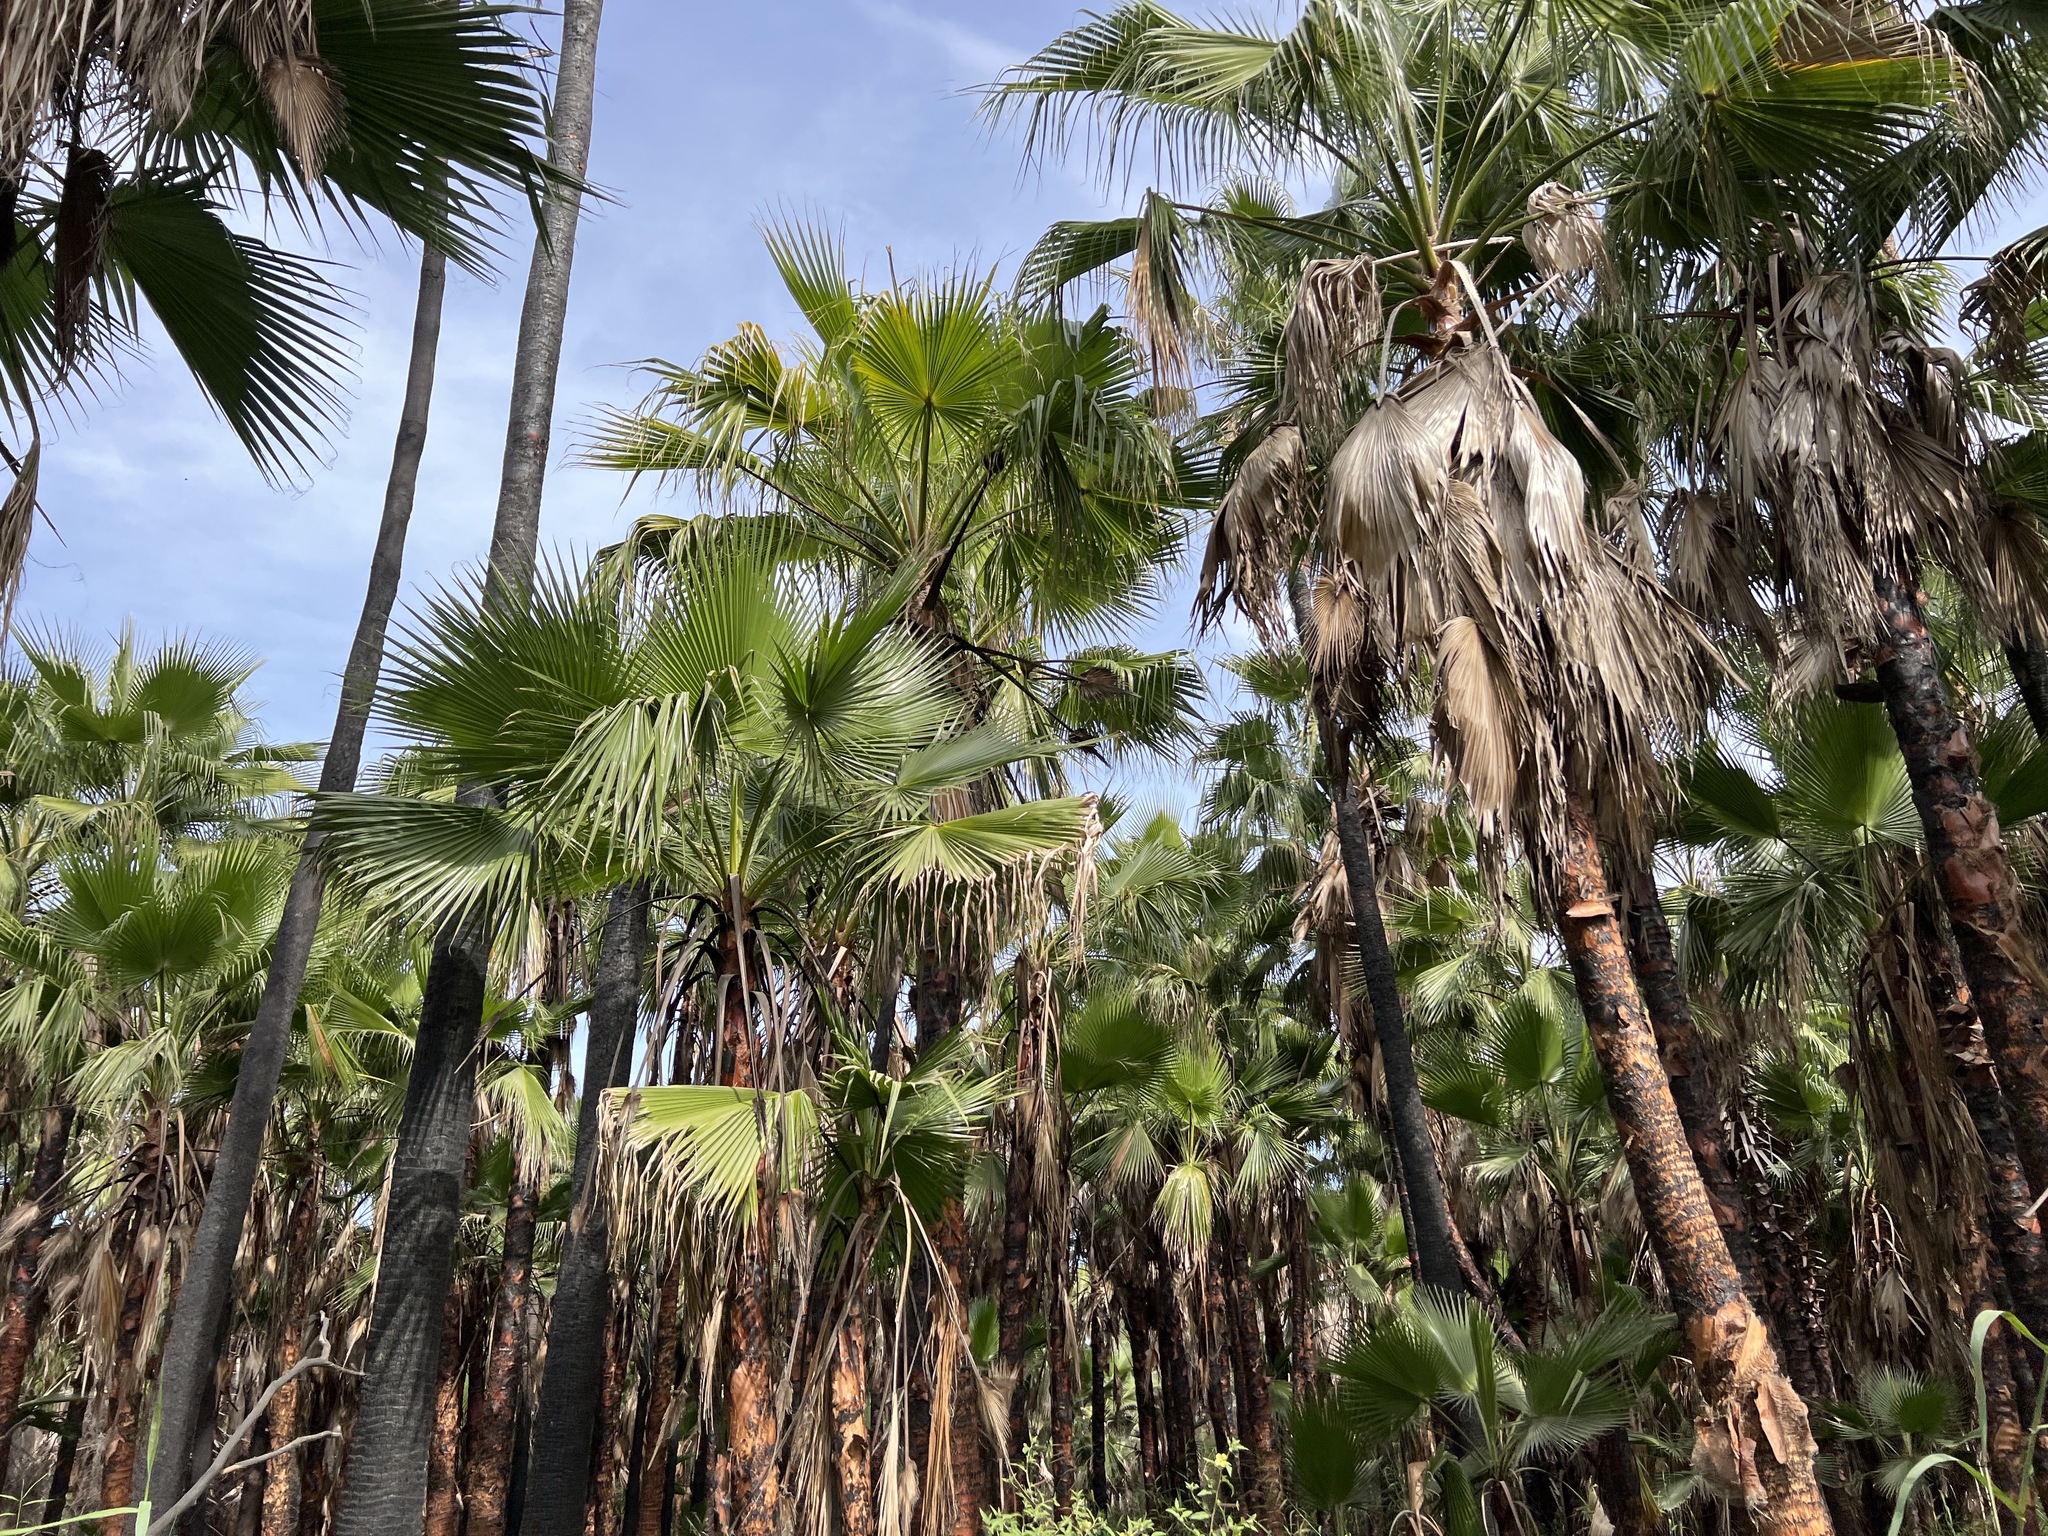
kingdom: Plantae
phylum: Tracheophyta
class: Liliopsida
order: Arecales
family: Arecaceae
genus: Washingtonia
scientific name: Washingtonia robusta
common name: Mexican fan palm
